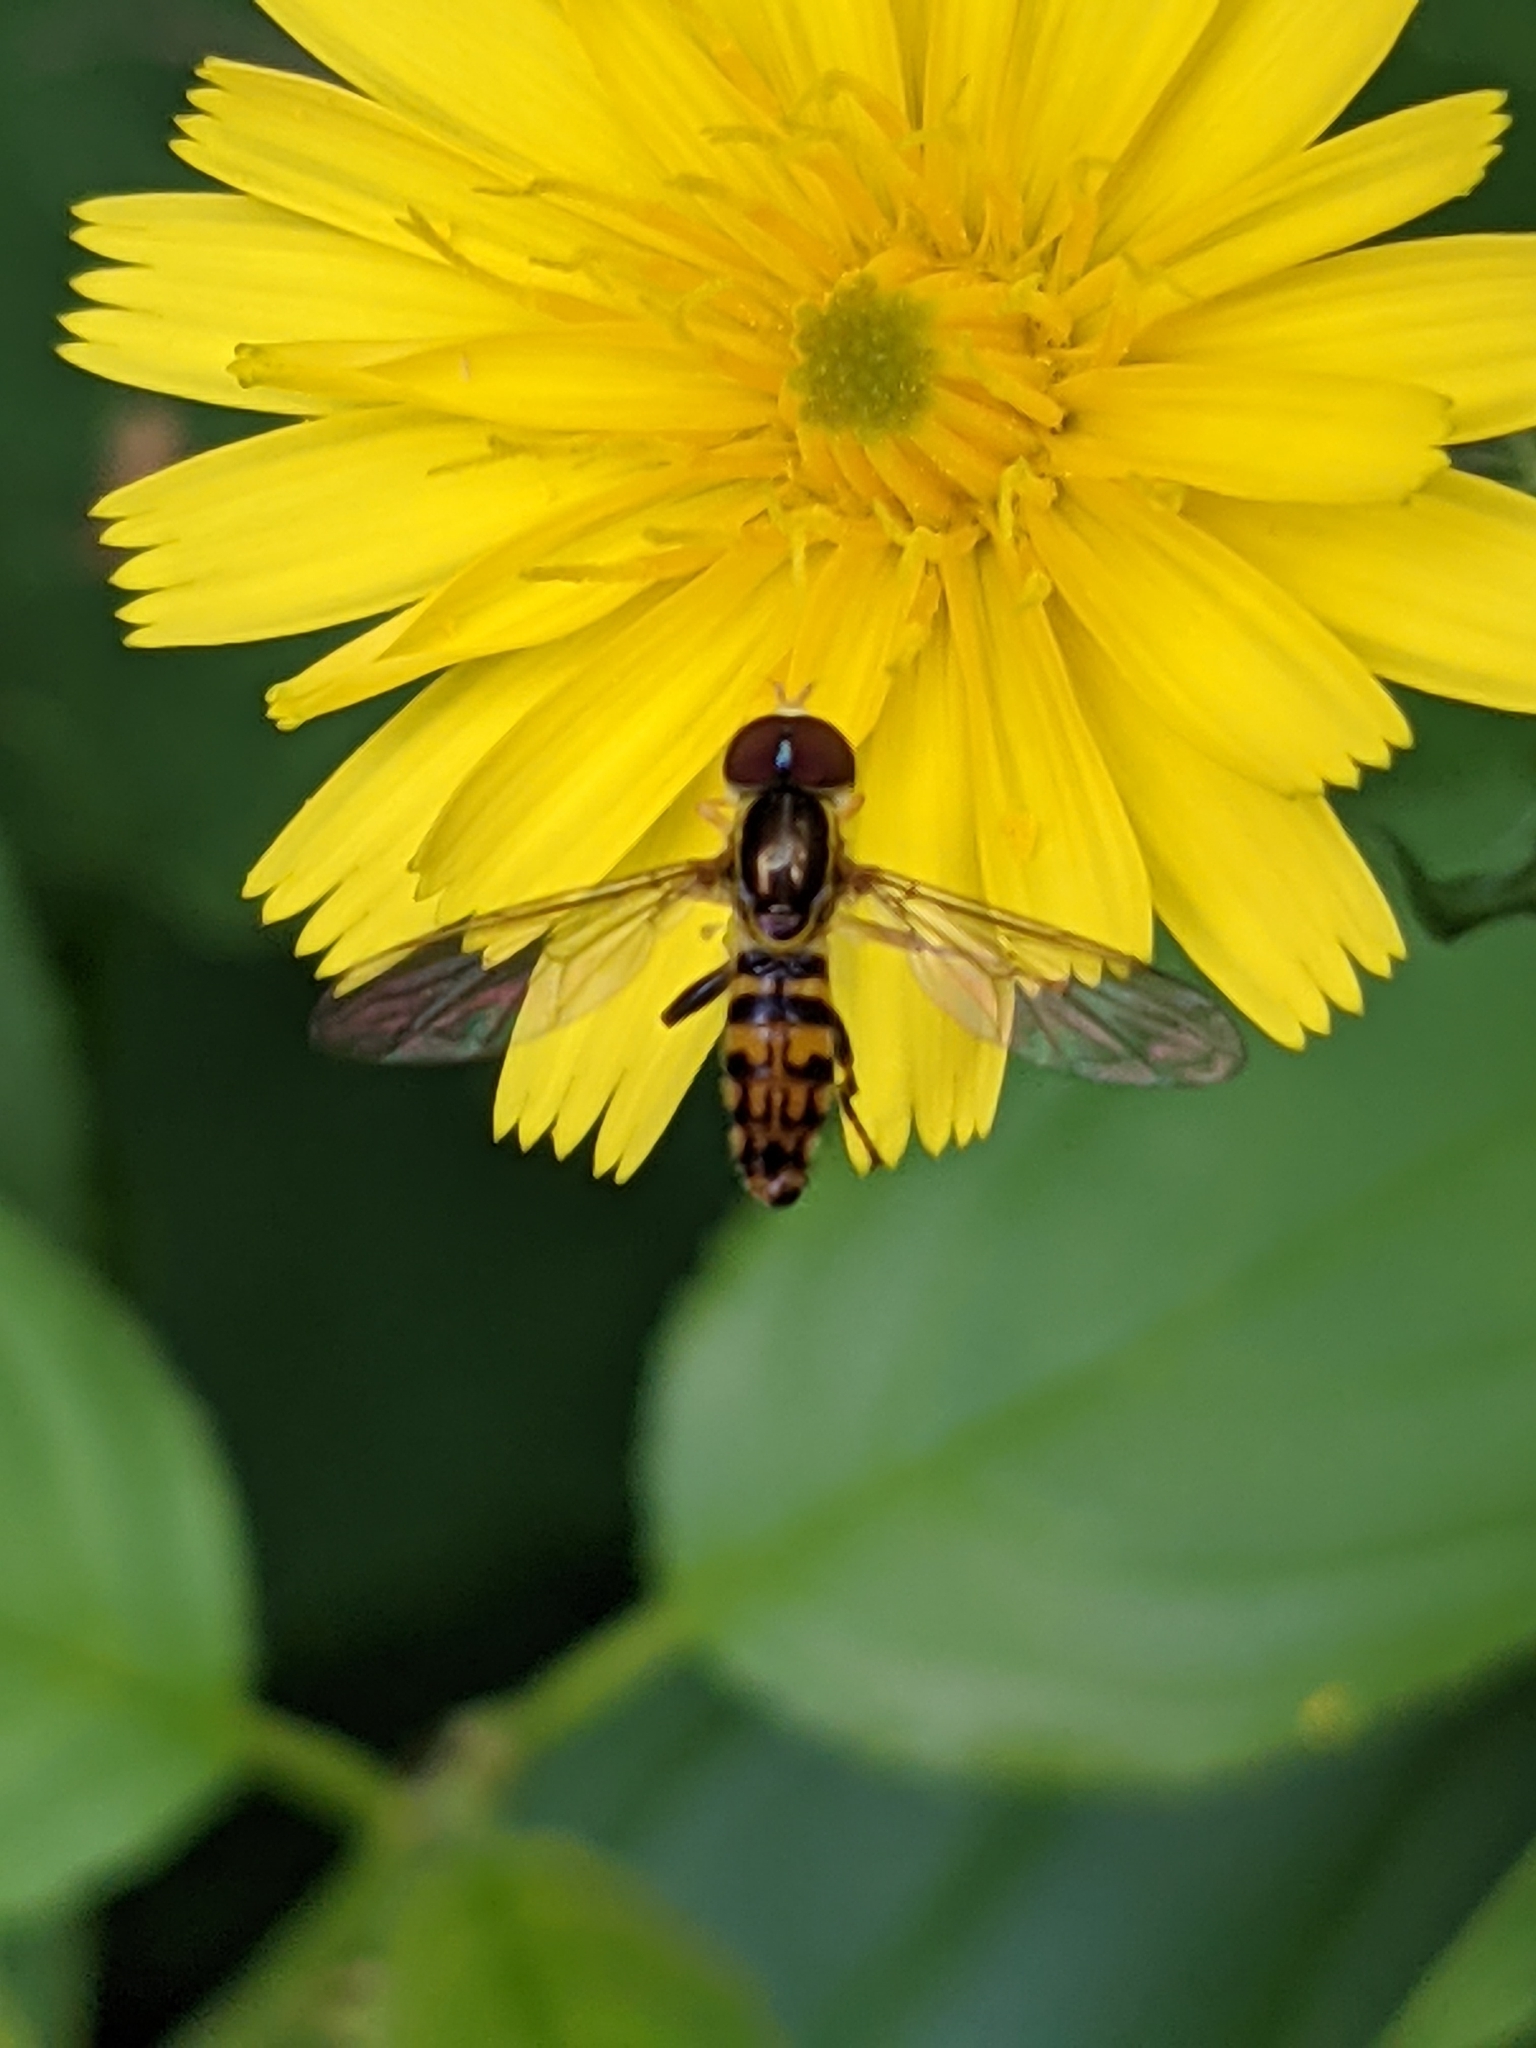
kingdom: Animalia
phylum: Arthropoda
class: Insecta
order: Diptera
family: Syrphidae
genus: Toxomerus
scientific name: Toxomerus geminatus
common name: Eastern calligrapher
